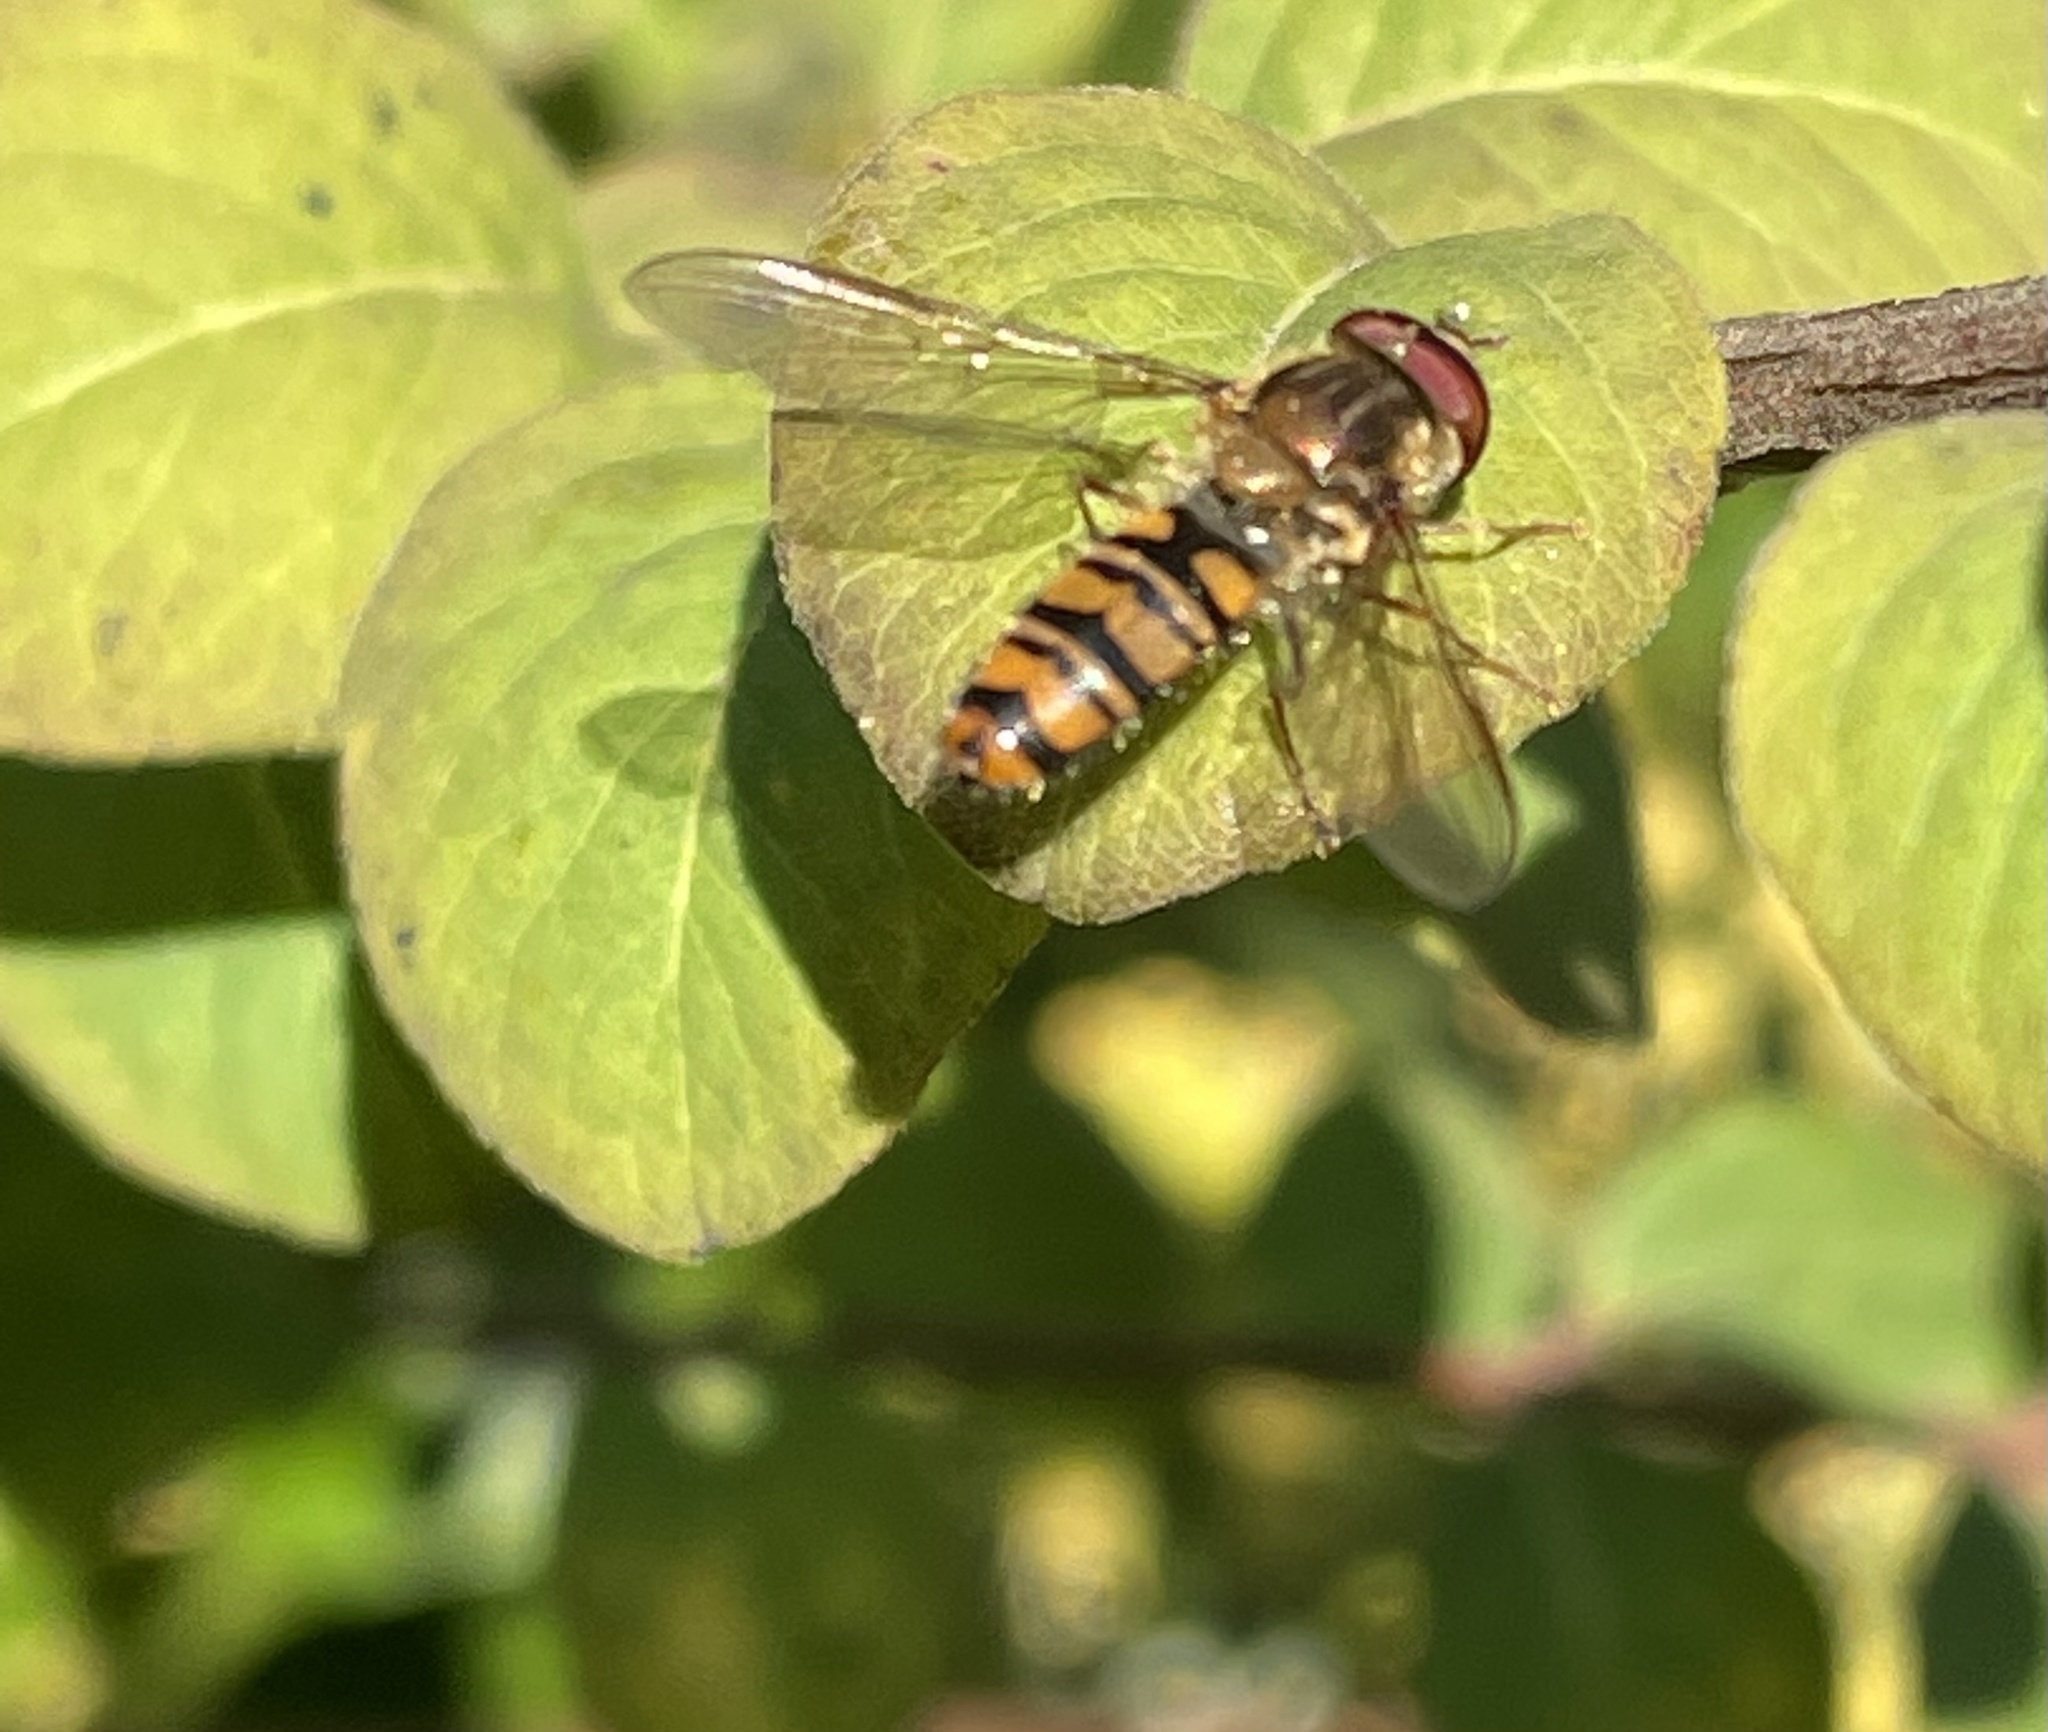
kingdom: Animalia
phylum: Arthropoda
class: Insecta
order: Diptera
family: Syrphidae
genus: Episyrphus
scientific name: Episyrphus balteatus
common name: Marmalade hoverfly
